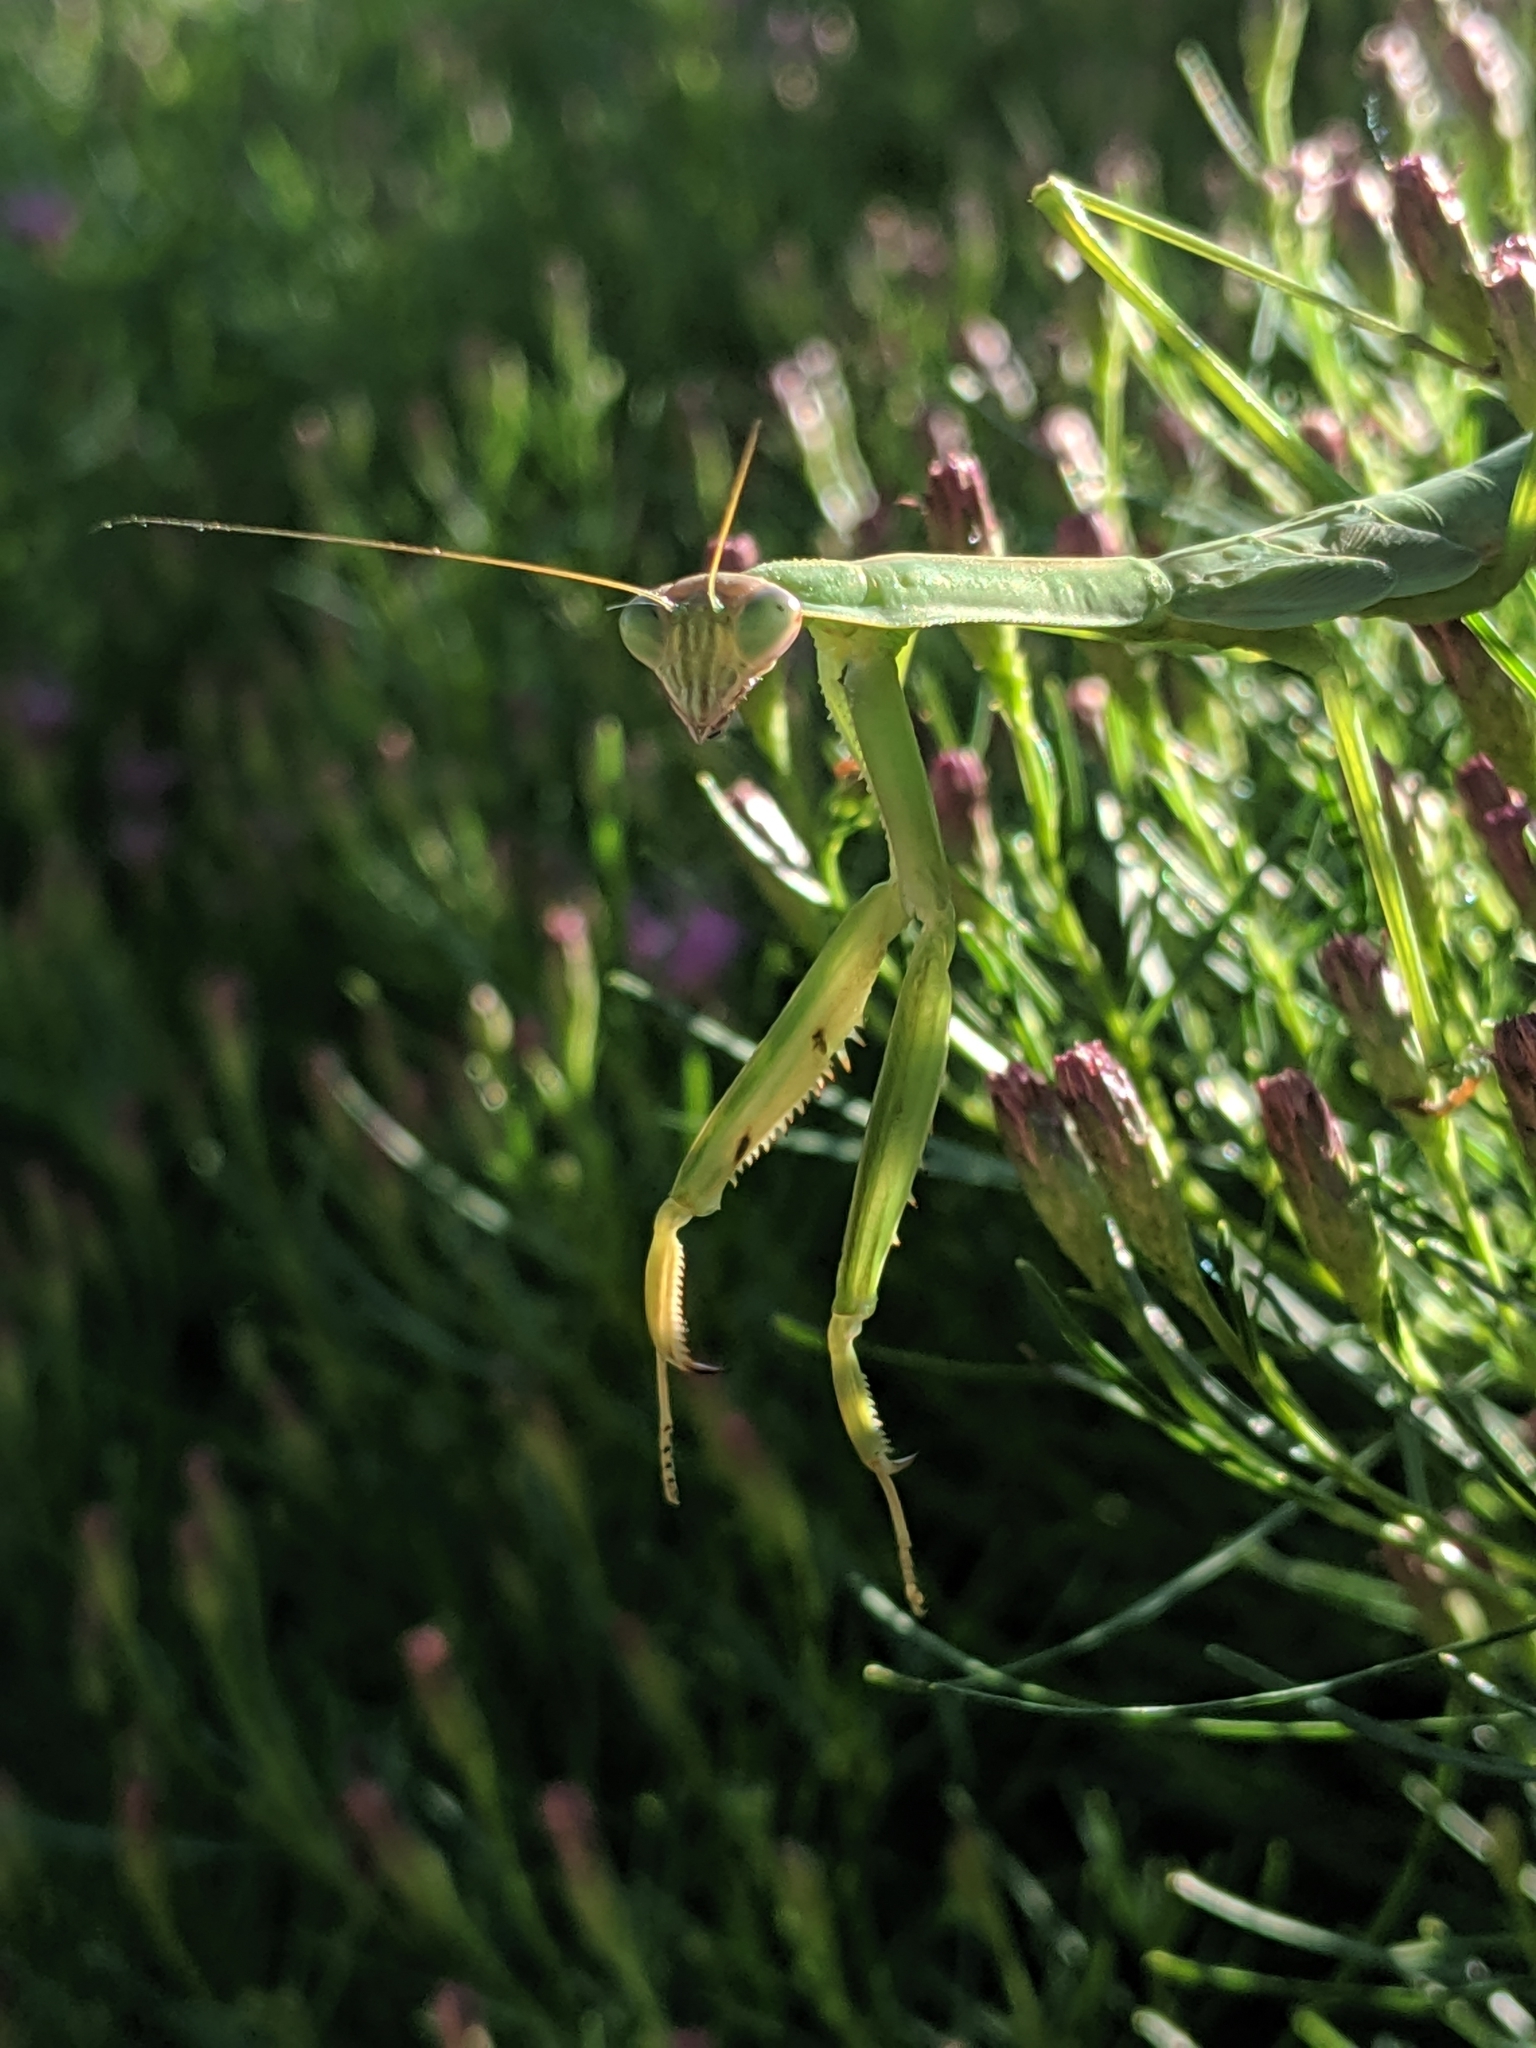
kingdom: Animalia
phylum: Arthropoda
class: Insecta
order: Mantodea
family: Mantidae
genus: Tenodera
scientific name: Tenodera sinensis
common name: Chinese mantis
